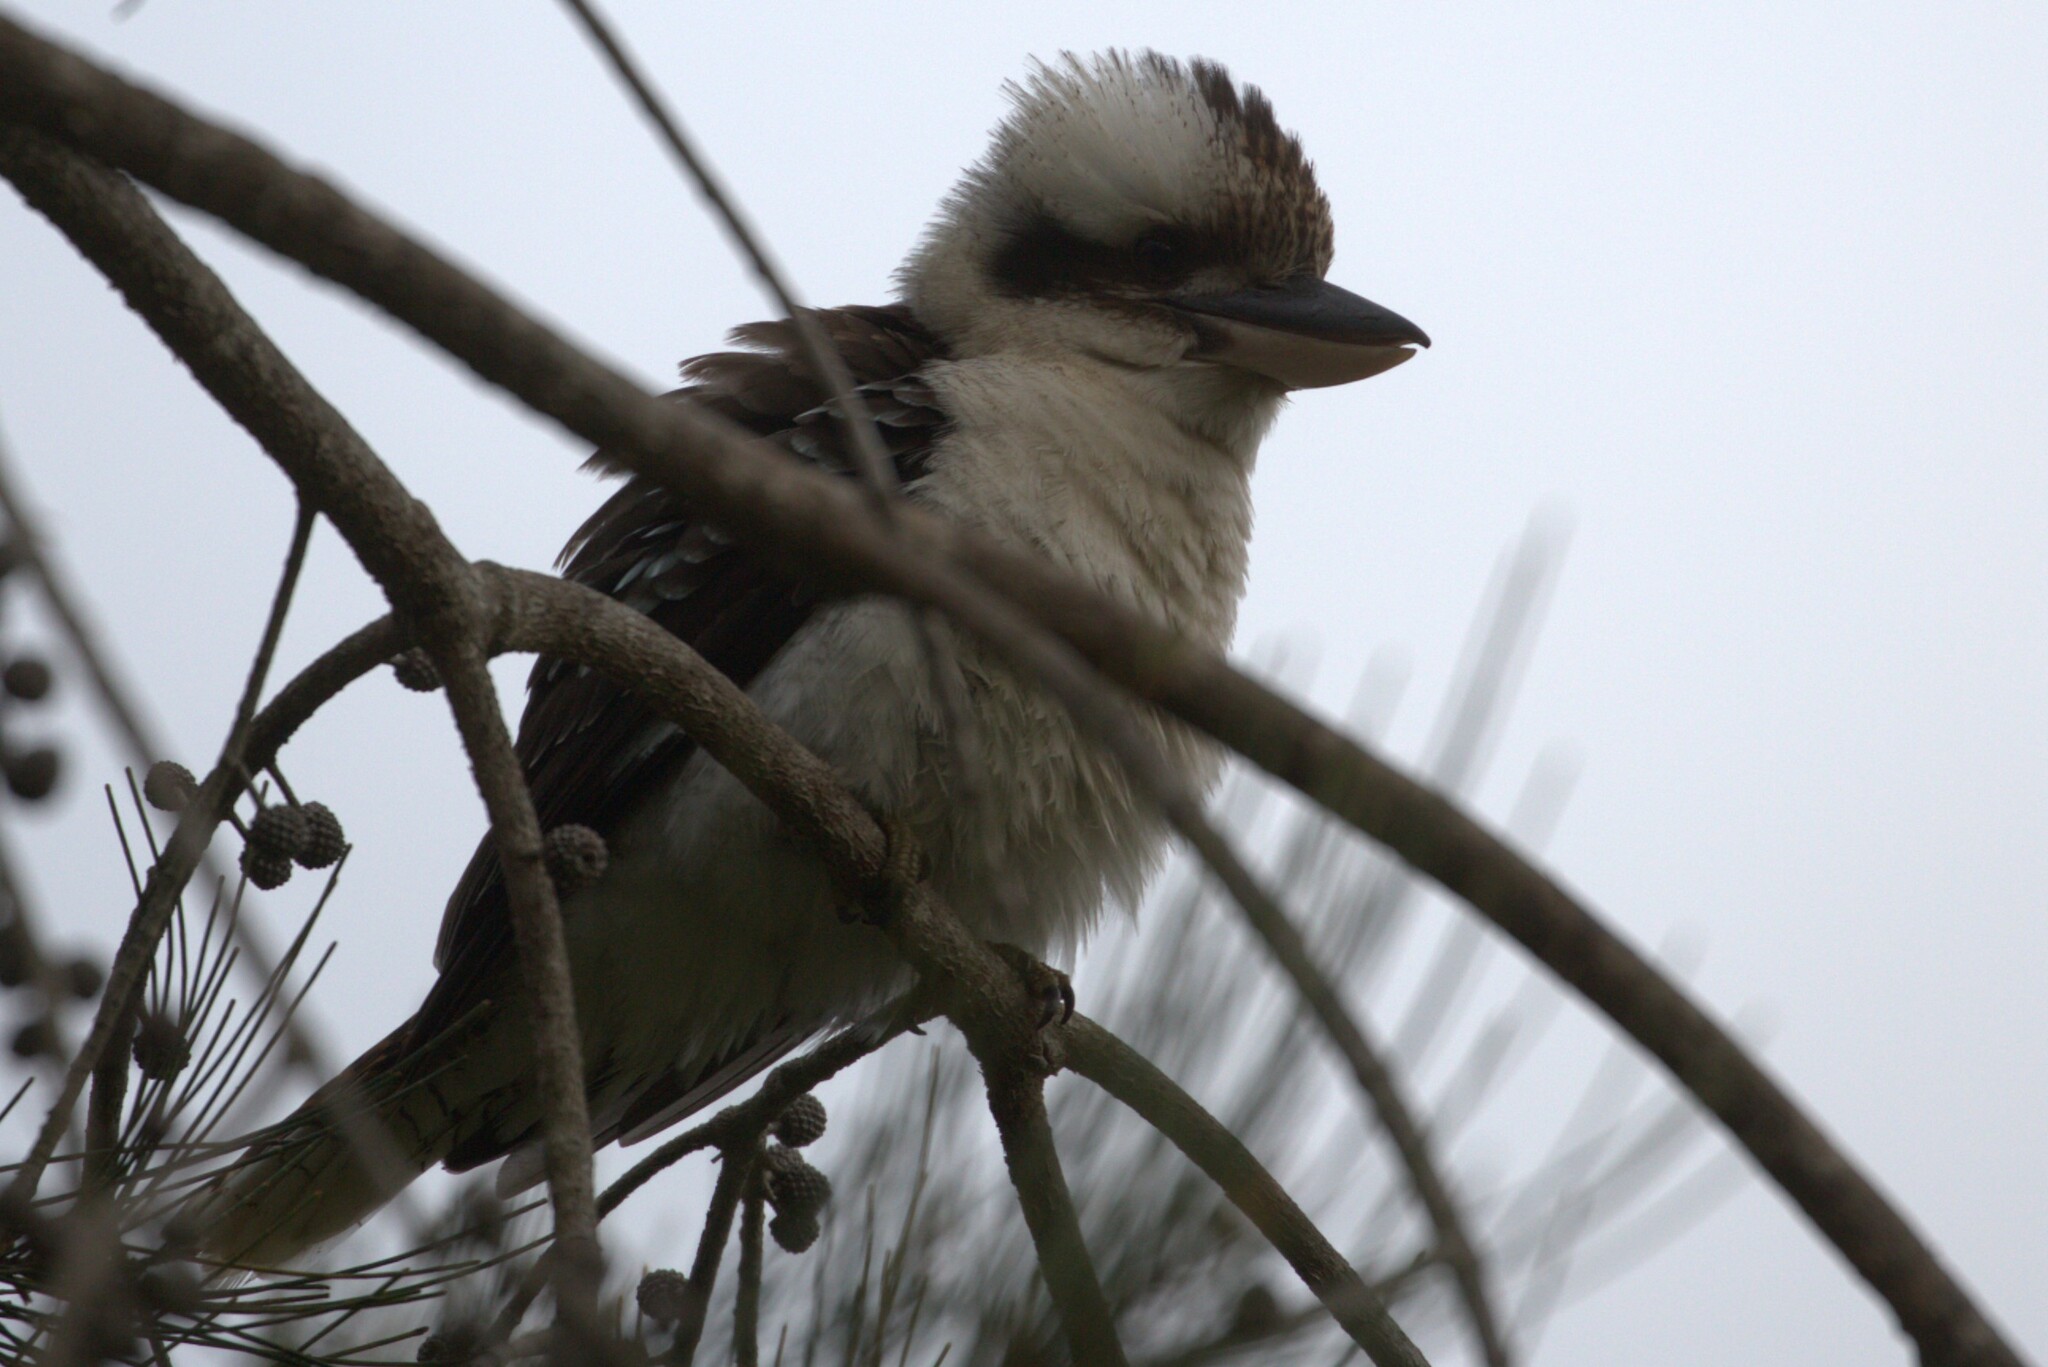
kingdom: Animalia
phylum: Chordata
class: Aves
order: Coraciiformes
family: Alcedinidae
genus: Dacelo
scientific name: Dacelo novaeguineae
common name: Laughing kookaburra
